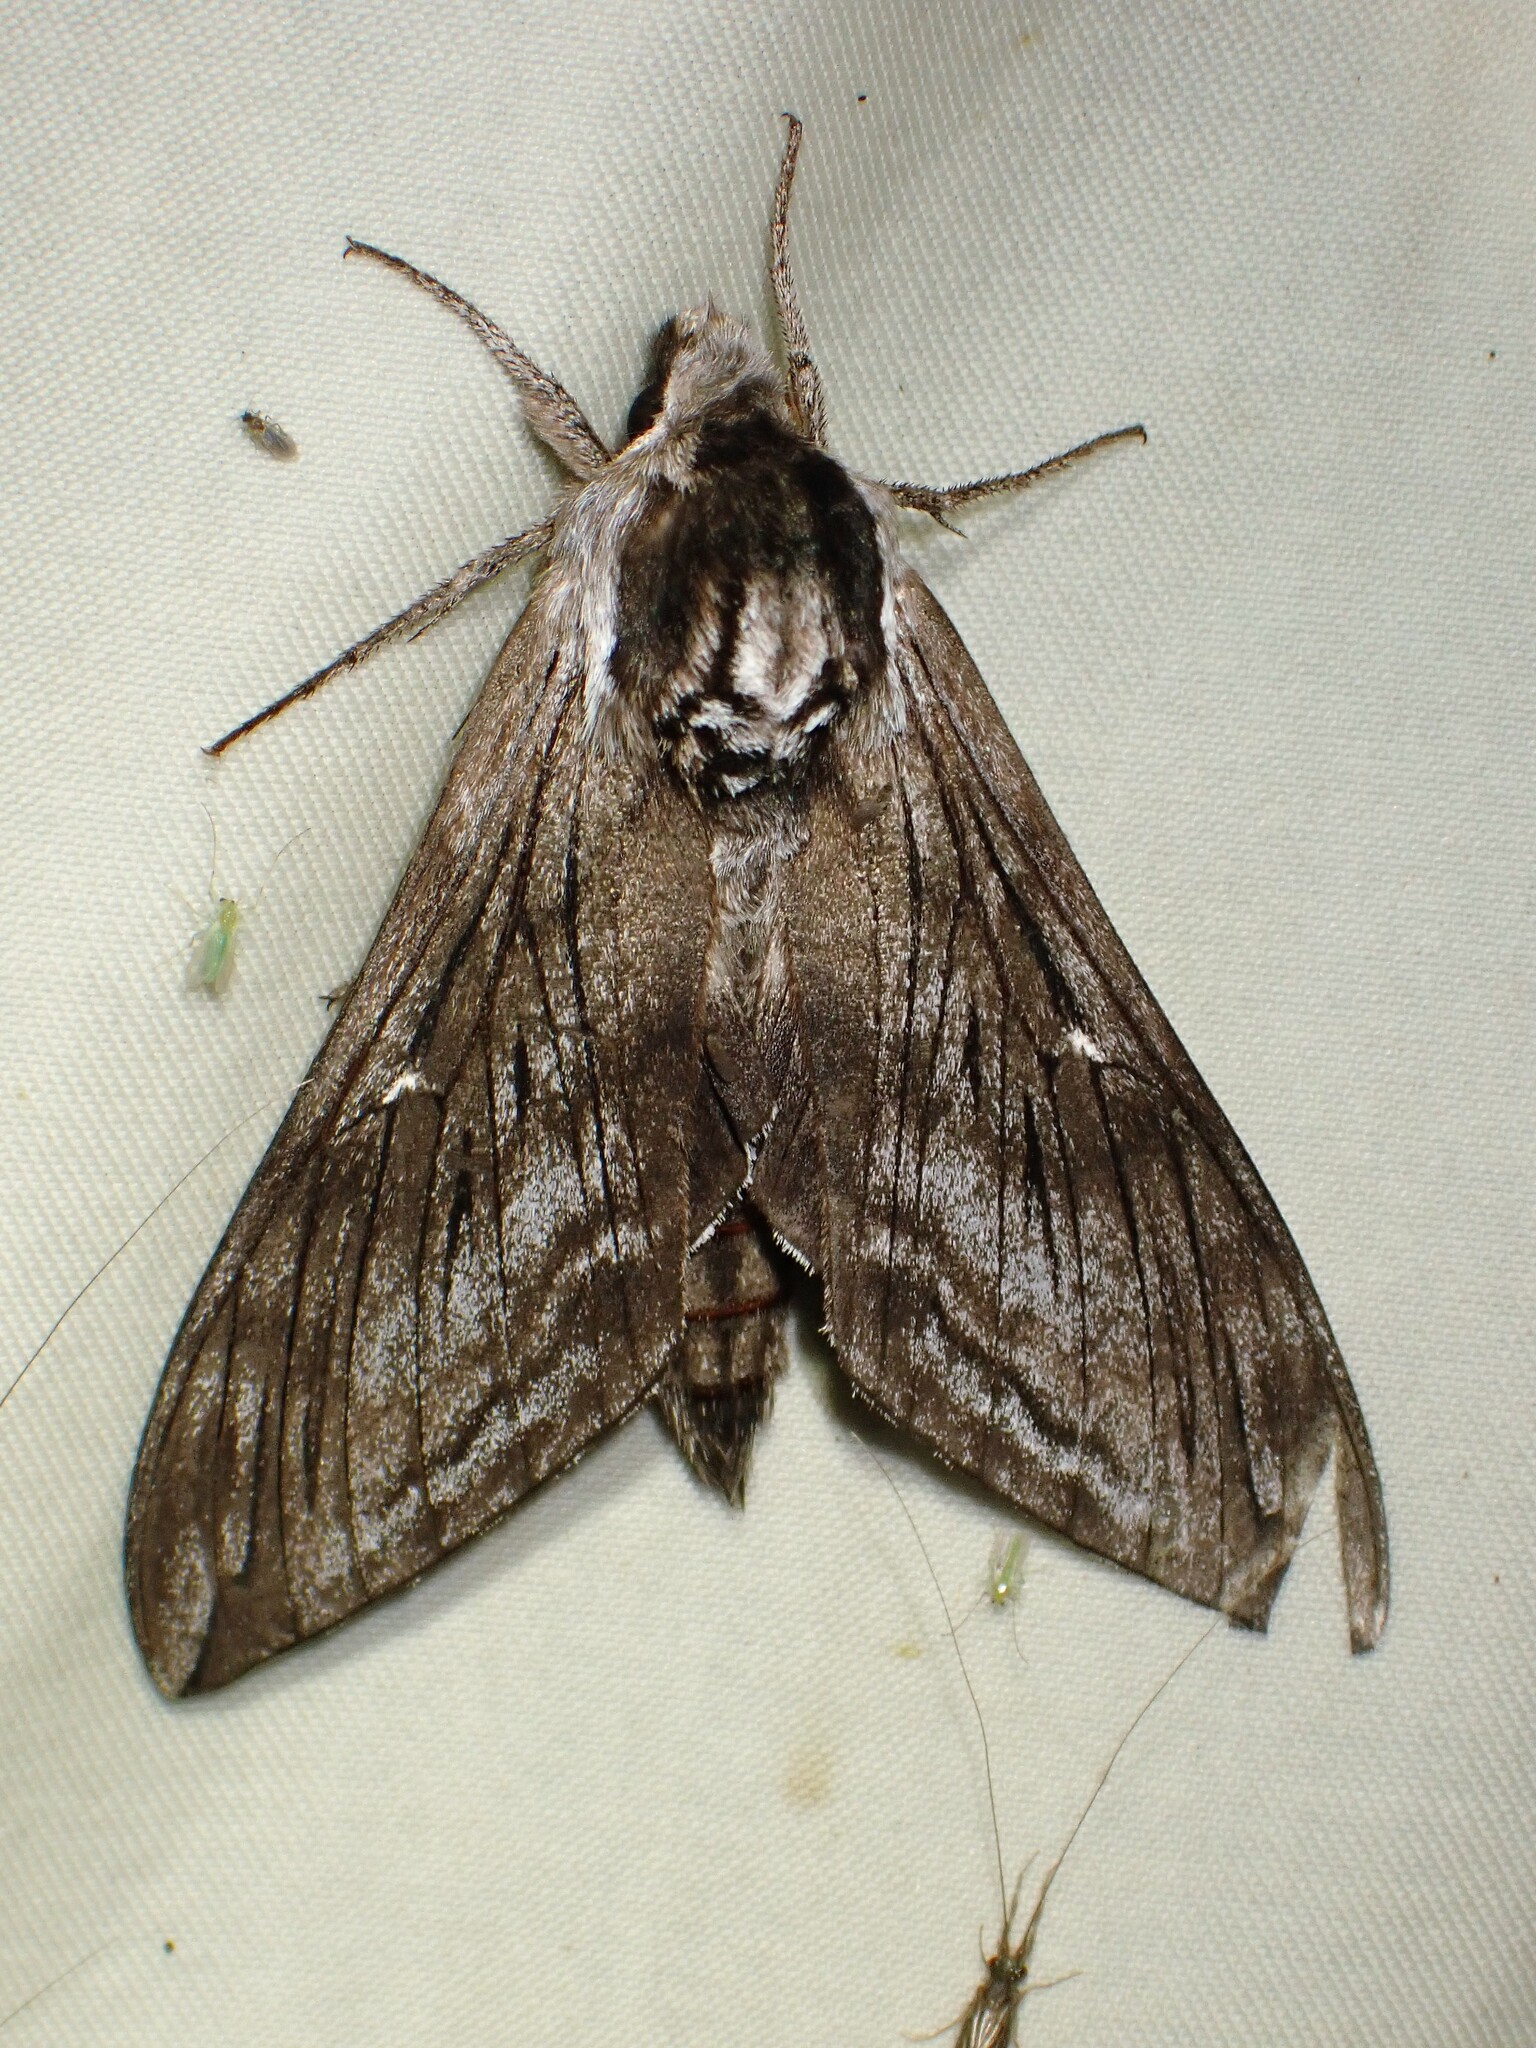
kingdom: Animalia
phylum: Arthropoda
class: Insecta
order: Lepidoptera
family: Sphingidae
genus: Sphinx
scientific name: Sphinx poecila
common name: Northern apple sphinx
